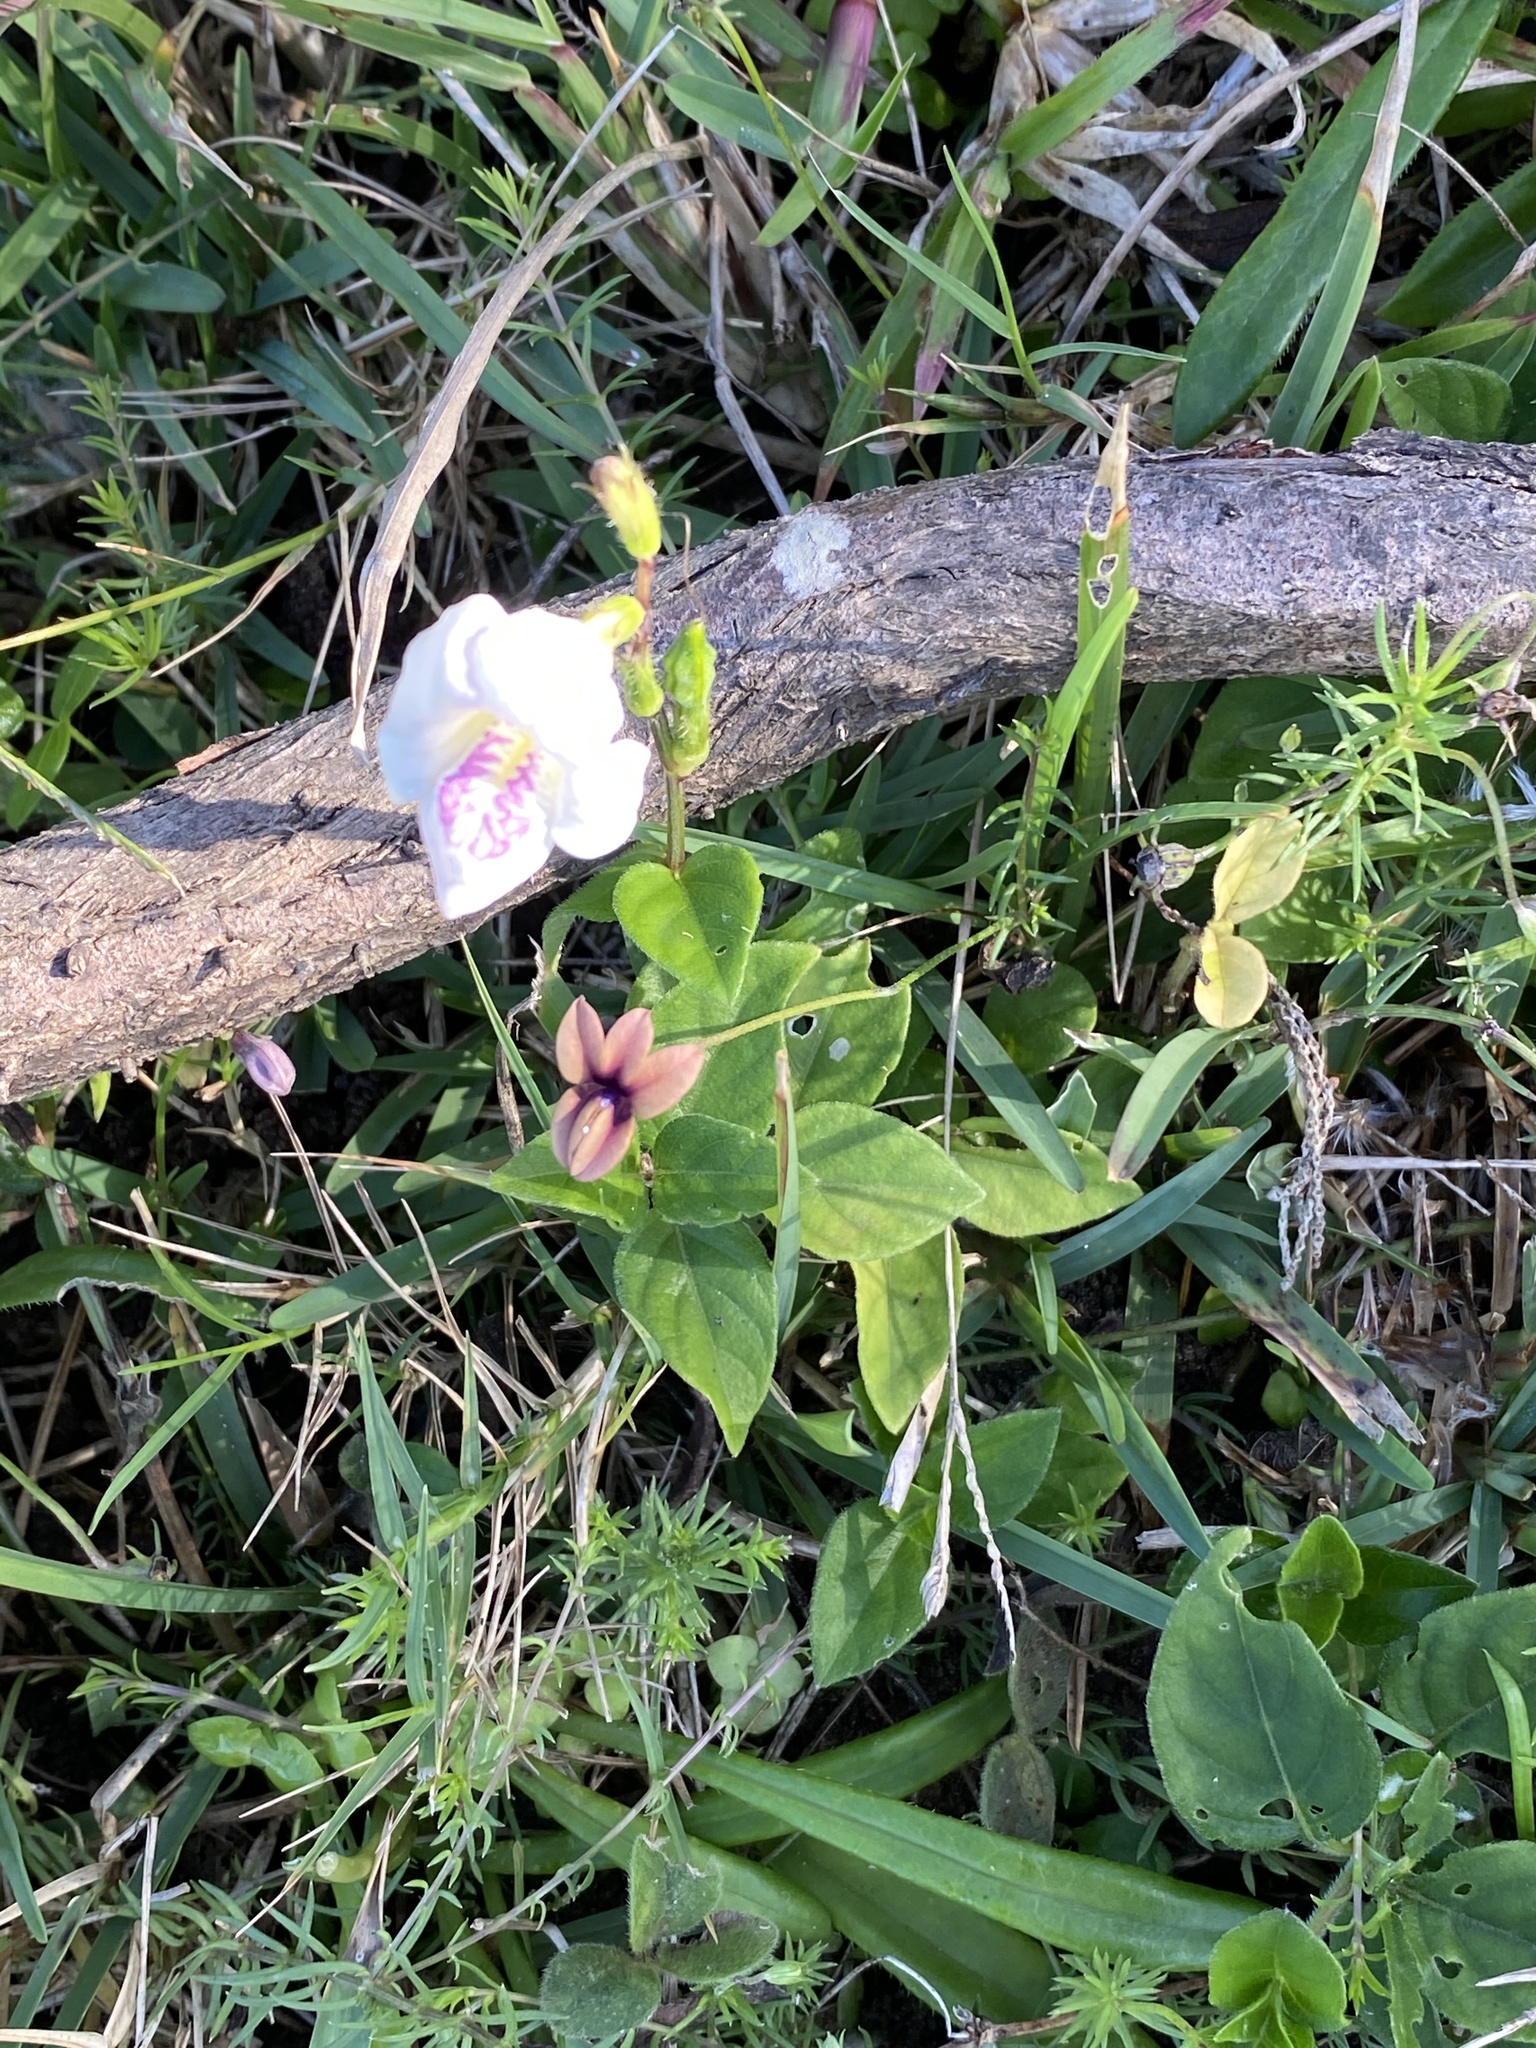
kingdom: Plantae
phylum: Tracheophyta
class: Magnoliopsida
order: Lamiales
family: Acanthaceae
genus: Asystasia
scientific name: Asystasia intrusa
